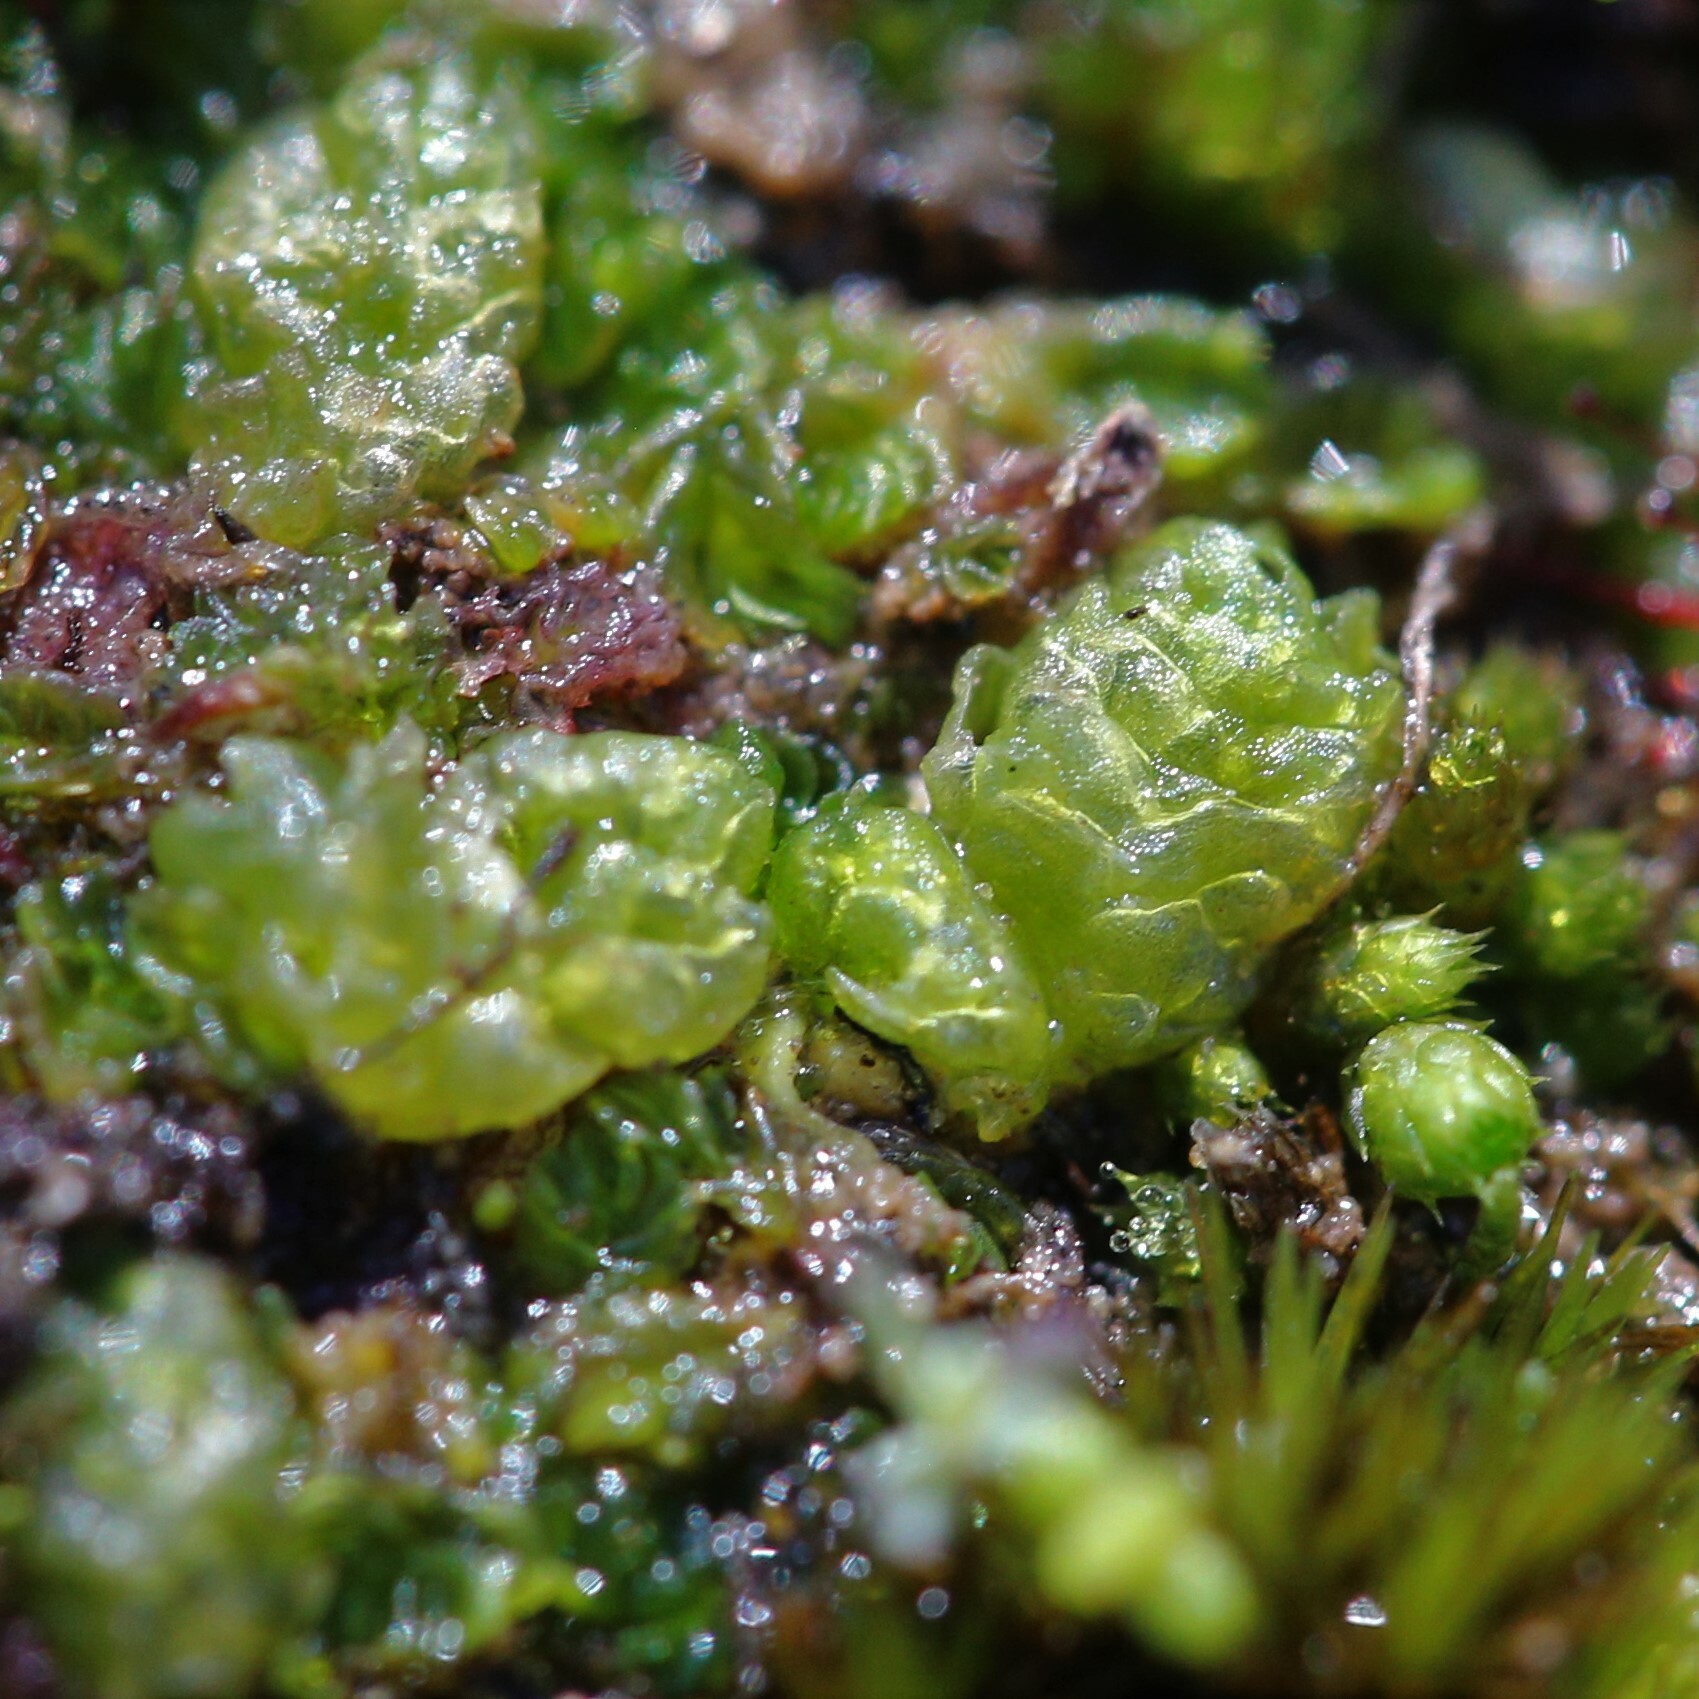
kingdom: Plantae
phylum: Marchantiophyta
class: Jungermanniopsida
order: Fossombroniales
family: Fossombroniaceae
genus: Fossombronia
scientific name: Fossombronia intestinalis
